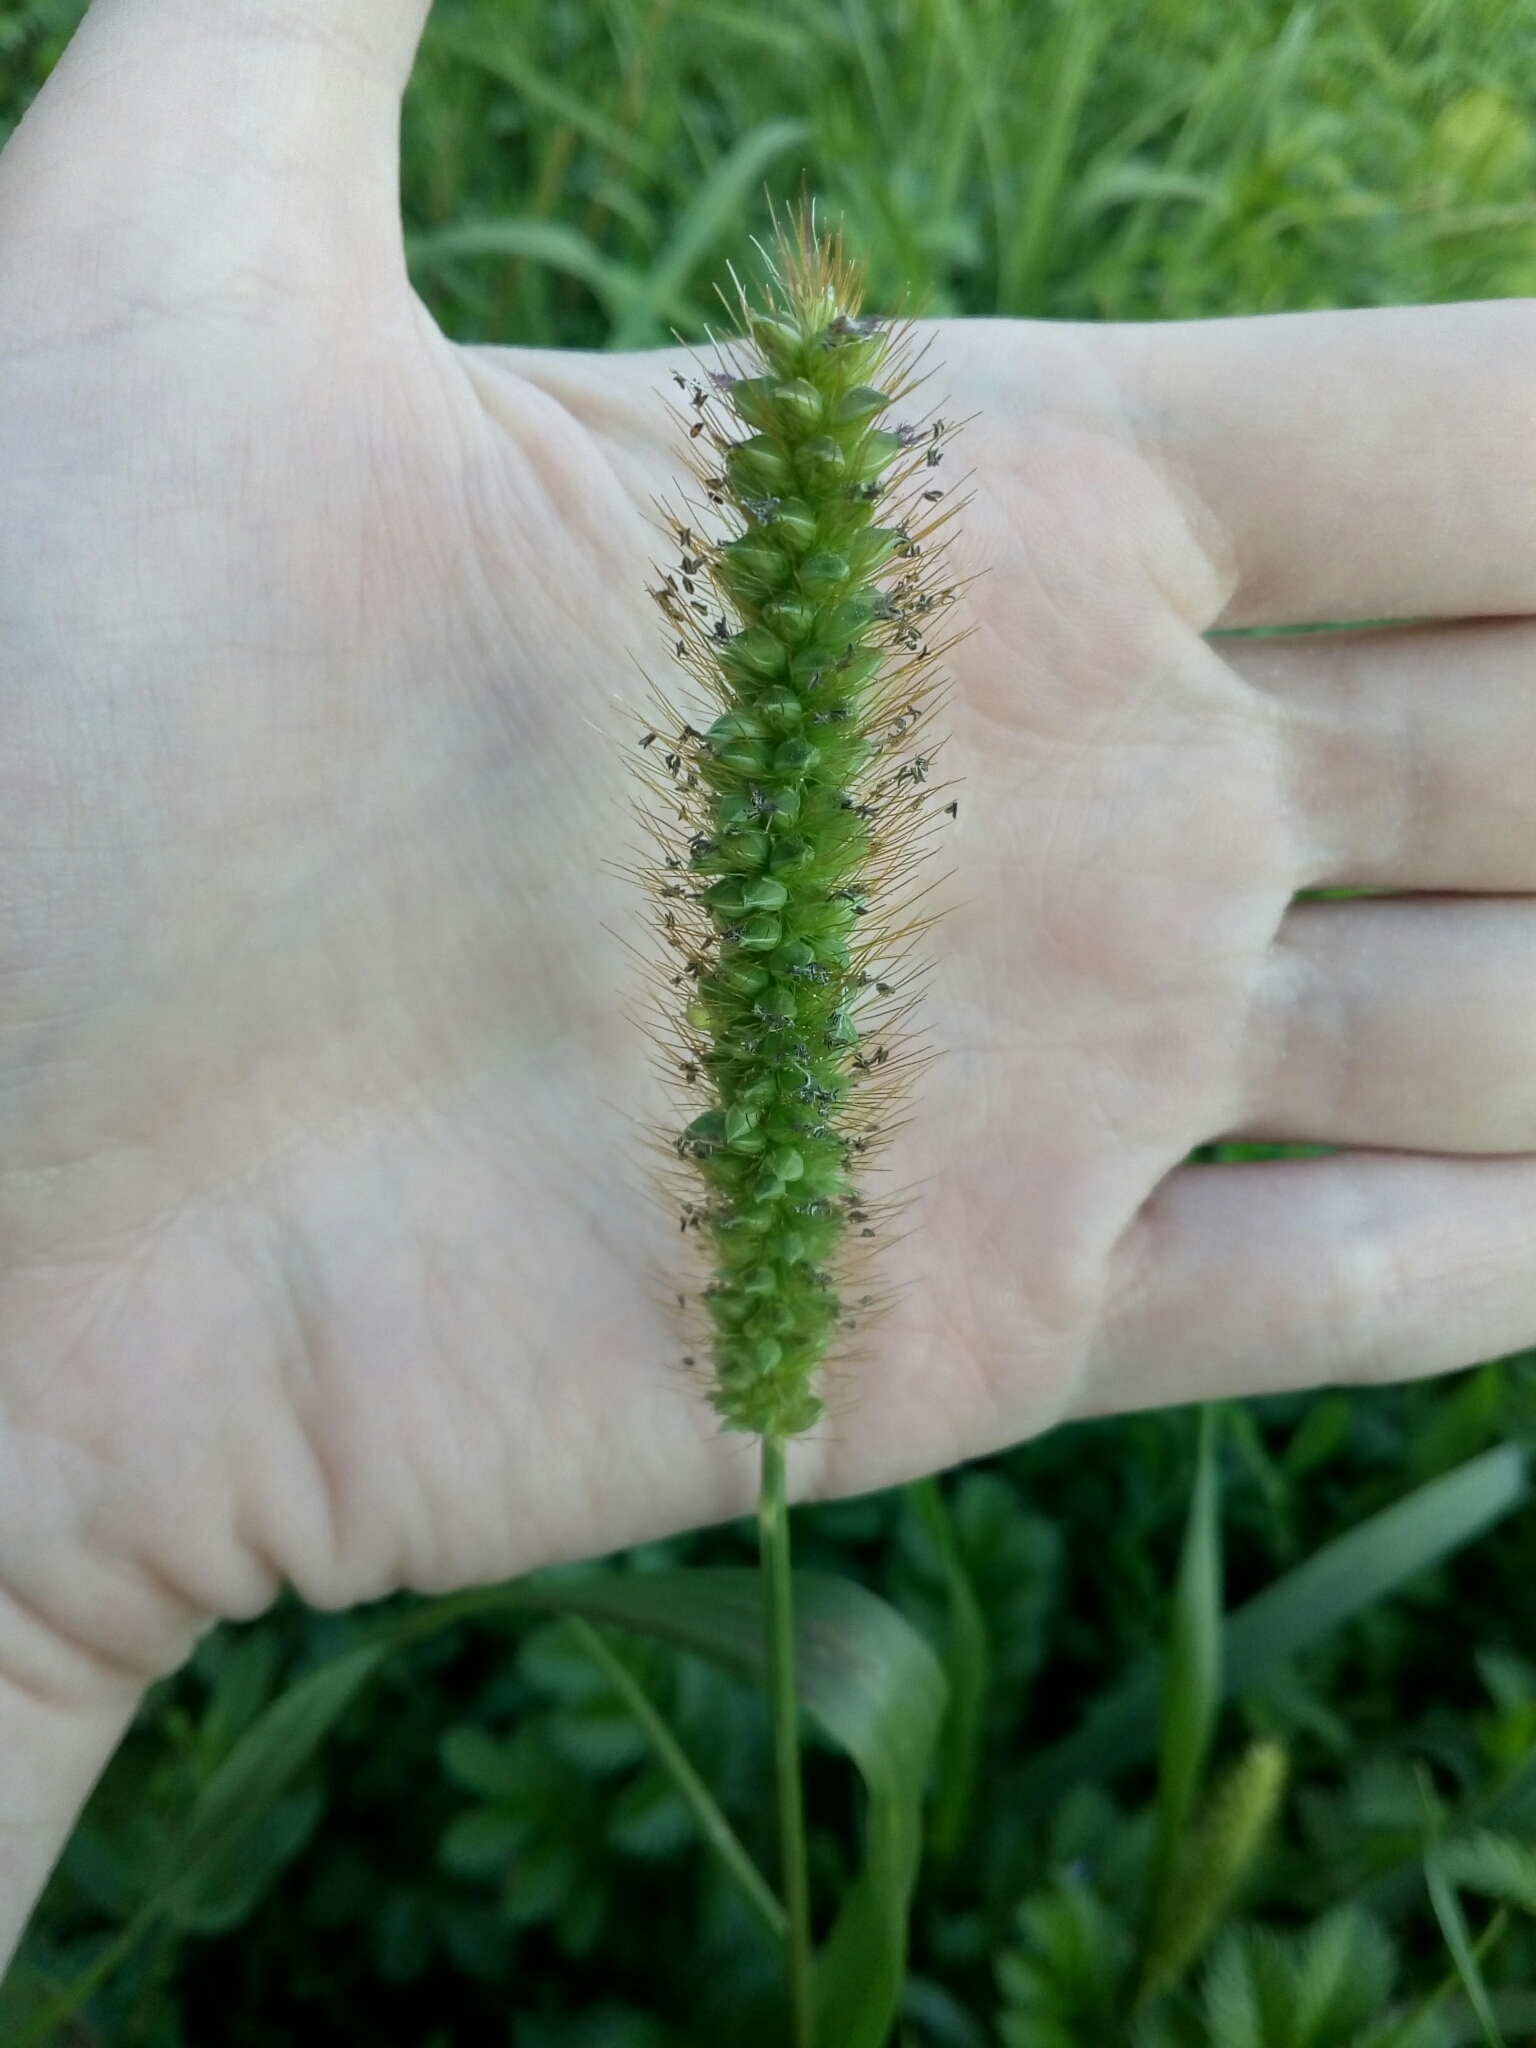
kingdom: Plantae
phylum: Tracheophyta
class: Liliopsida
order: Poales
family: Poaceae
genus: Setaria
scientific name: Setaria pumila
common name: Yellow bristle-grass
